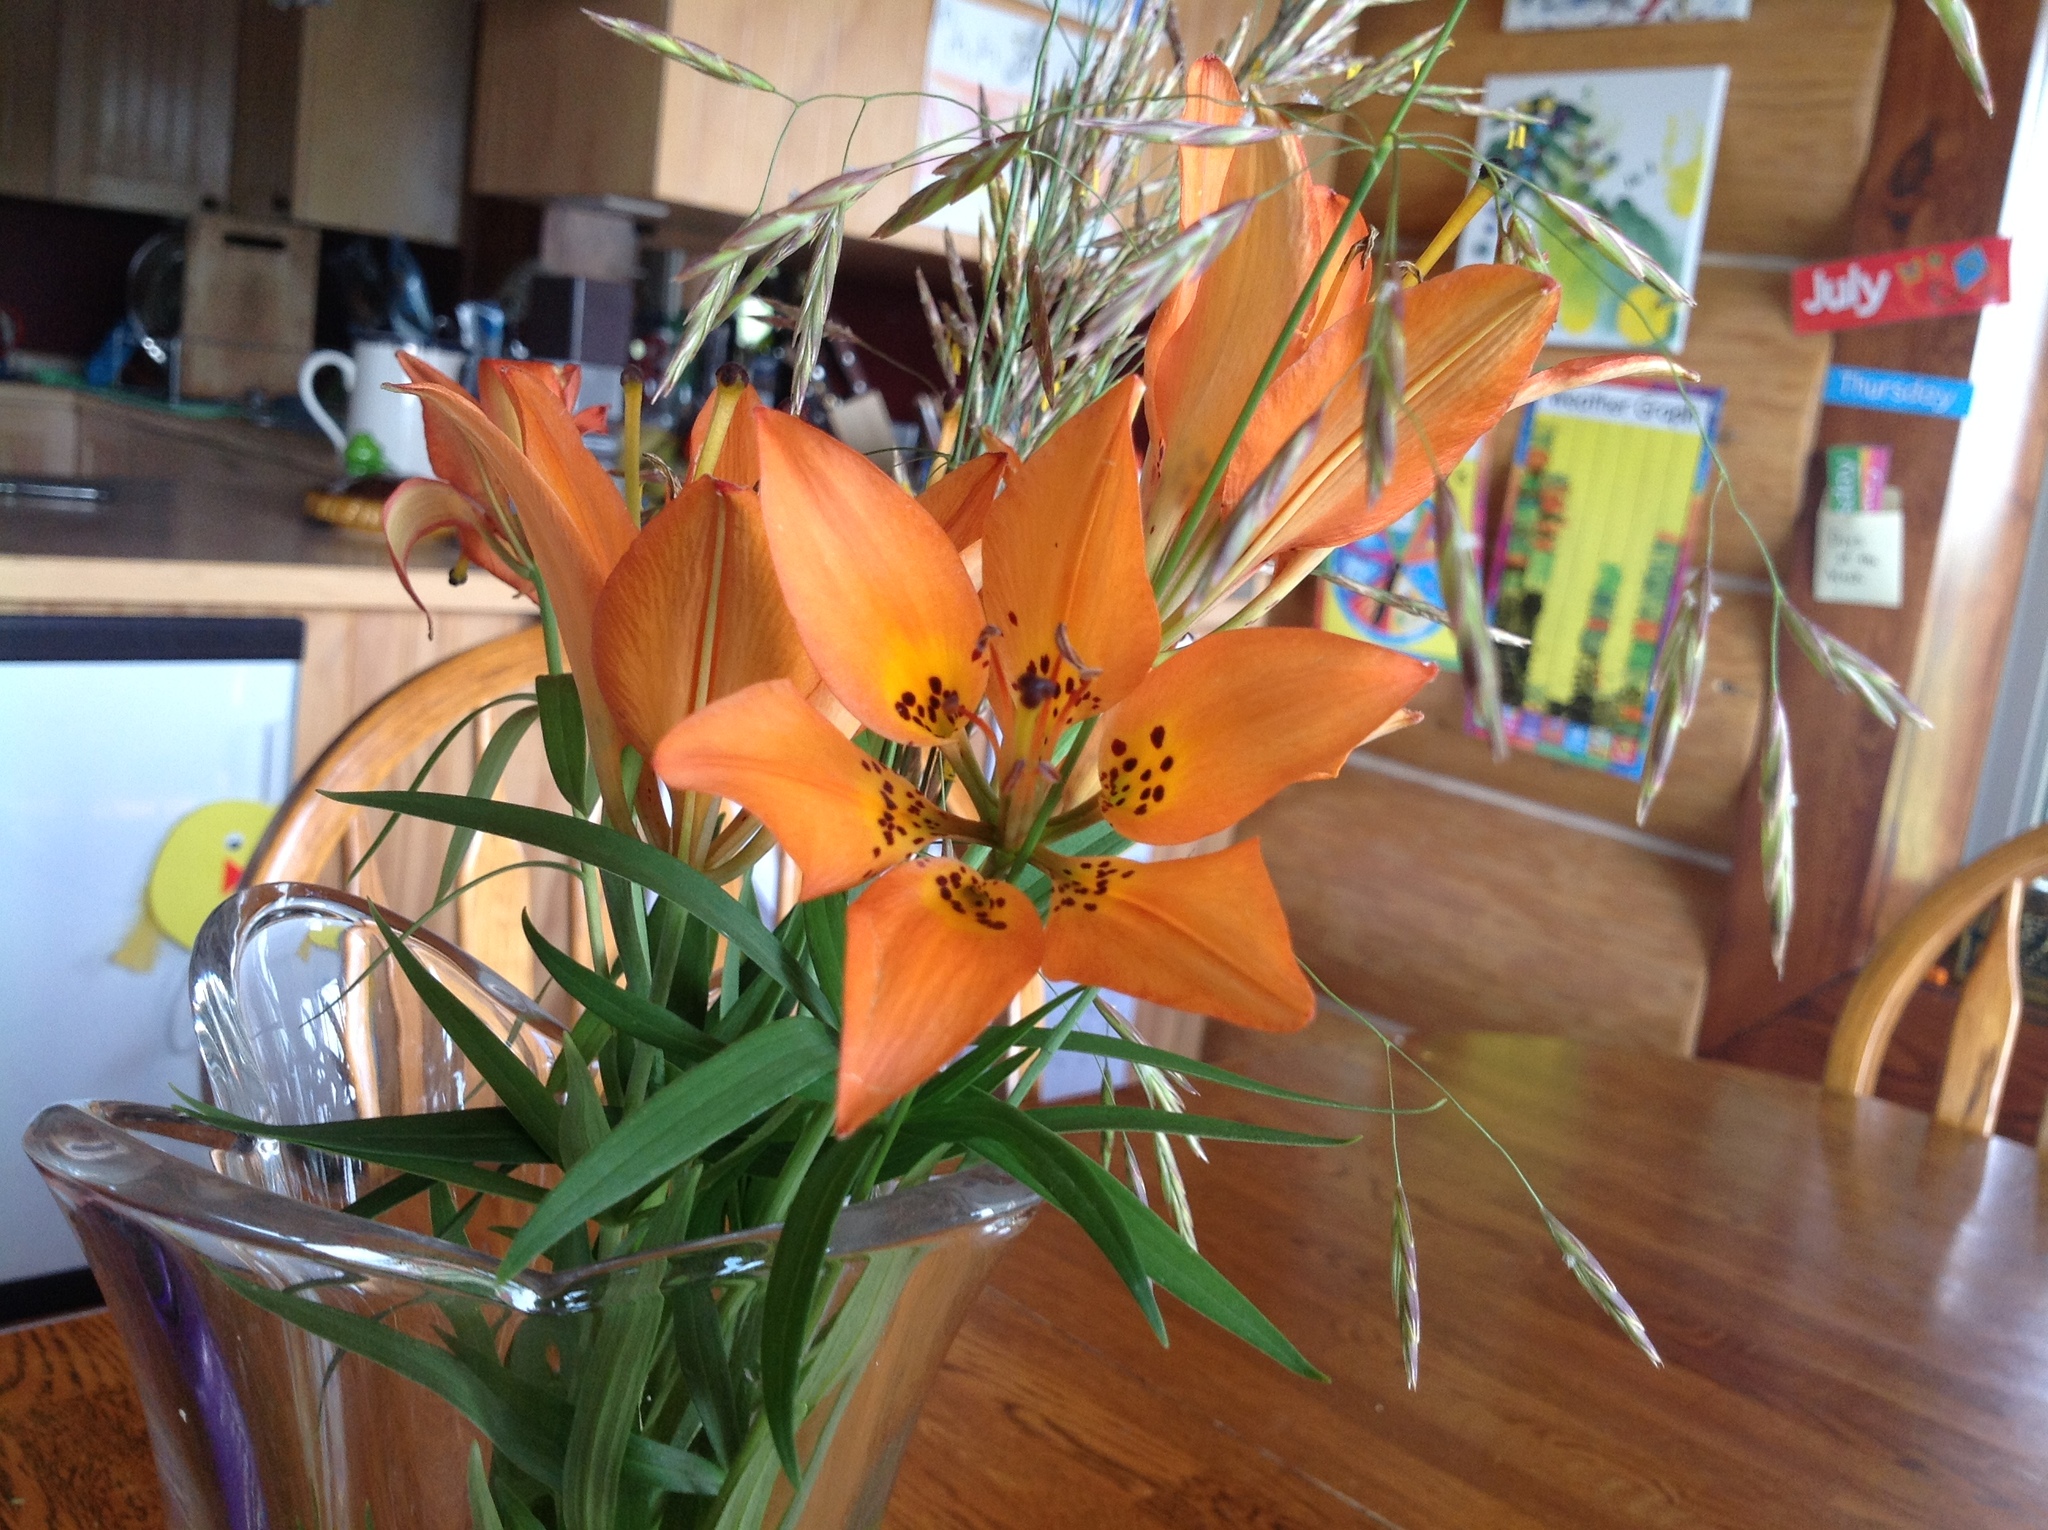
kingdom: Plantae
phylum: Tracheophyta
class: Liliopsida
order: Liliales
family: Liliaceae
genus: Lilium
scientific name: Lilium philadelphicum
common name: Red lily
